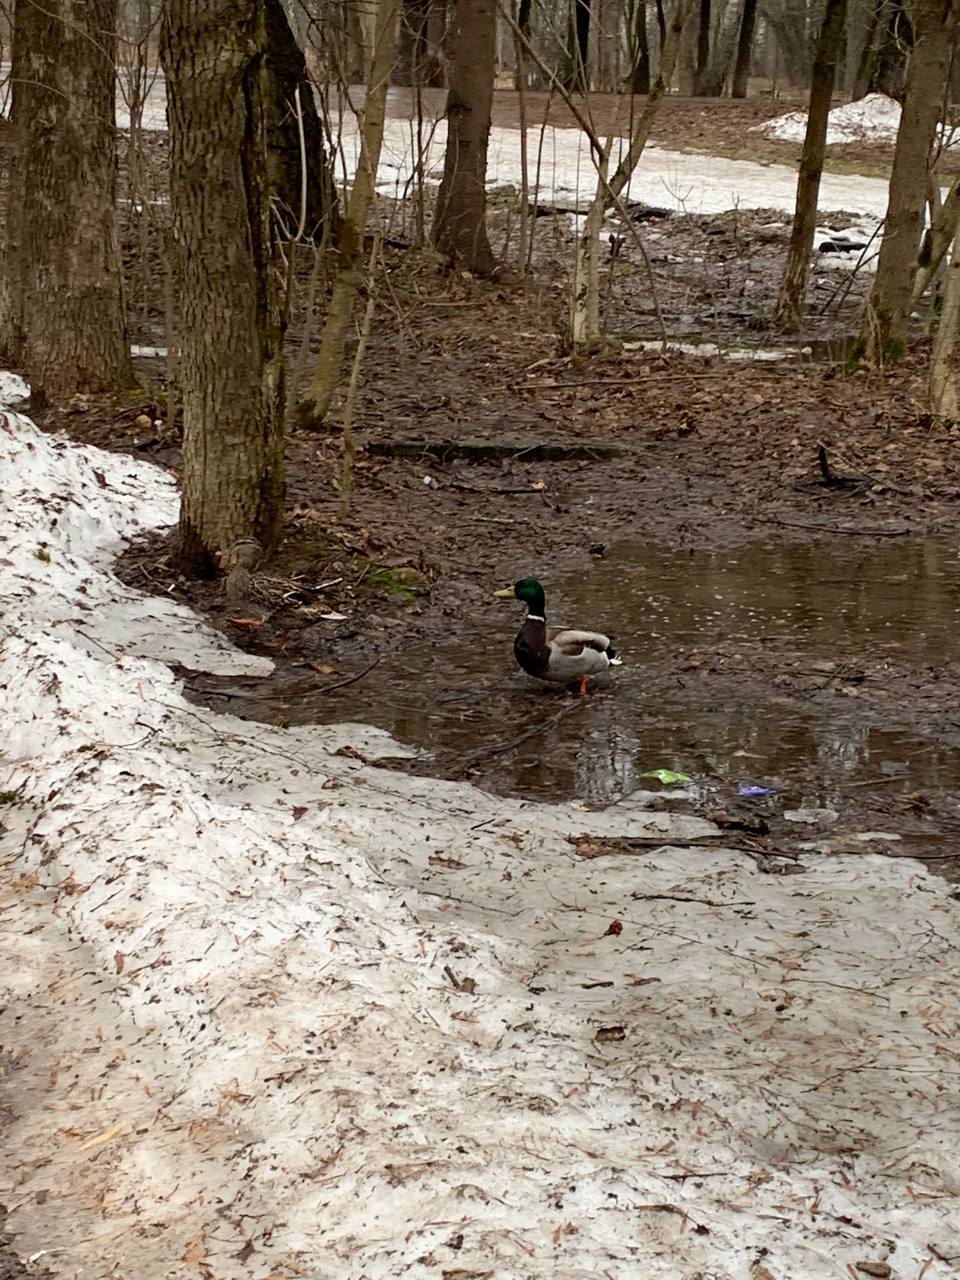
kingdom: Animalia
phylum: Chordata
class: Aves
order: Anseriformes
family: Anatidae
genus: Anas
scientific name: Anas platyrhynchos
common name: Mallard
